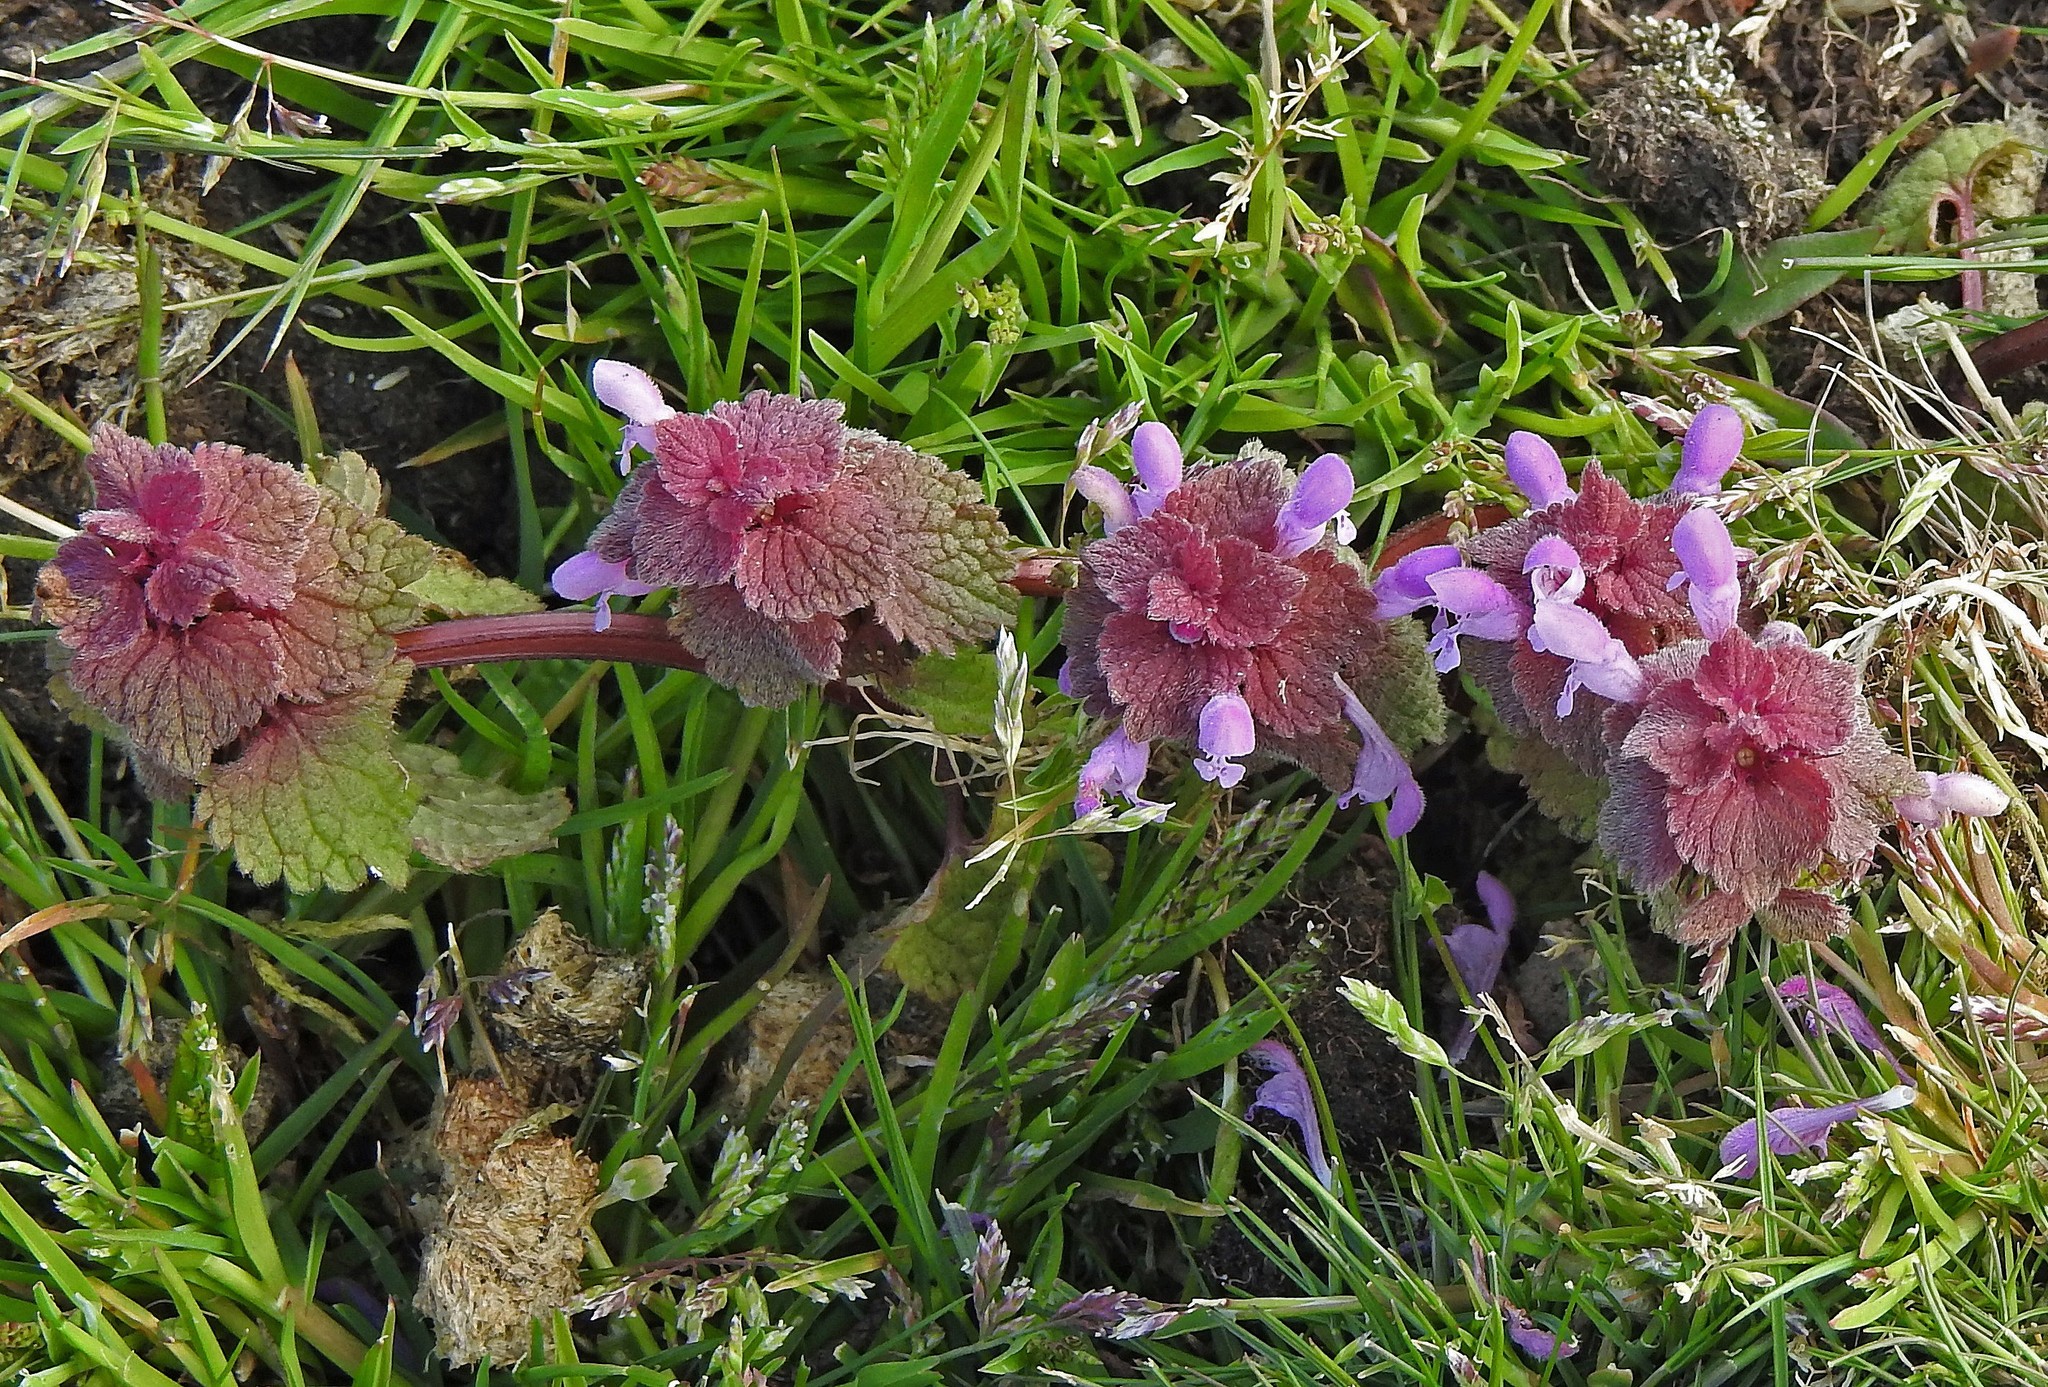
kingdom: Plantae
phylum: Tracheophyta
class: Magnoliopsida
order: Lamiales
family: Lamiaceae
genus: Lamium
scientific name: Lamium purpureum
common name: Red dead-nettle
